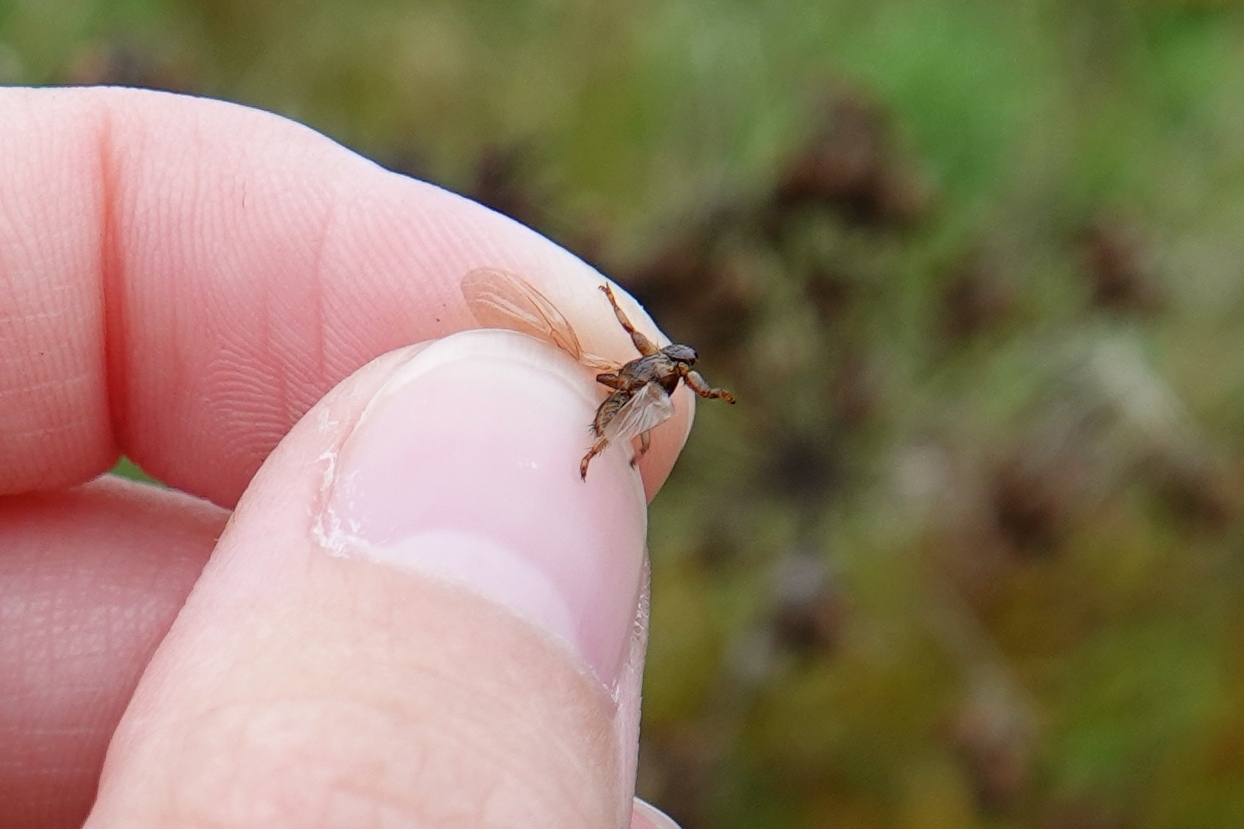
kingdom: Animalia
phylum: Arthropoda
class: Insecta
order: Diptera
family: Hippoboscidae
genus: Lipoptena
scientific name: Lipoptena cervi
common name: Deer ked
